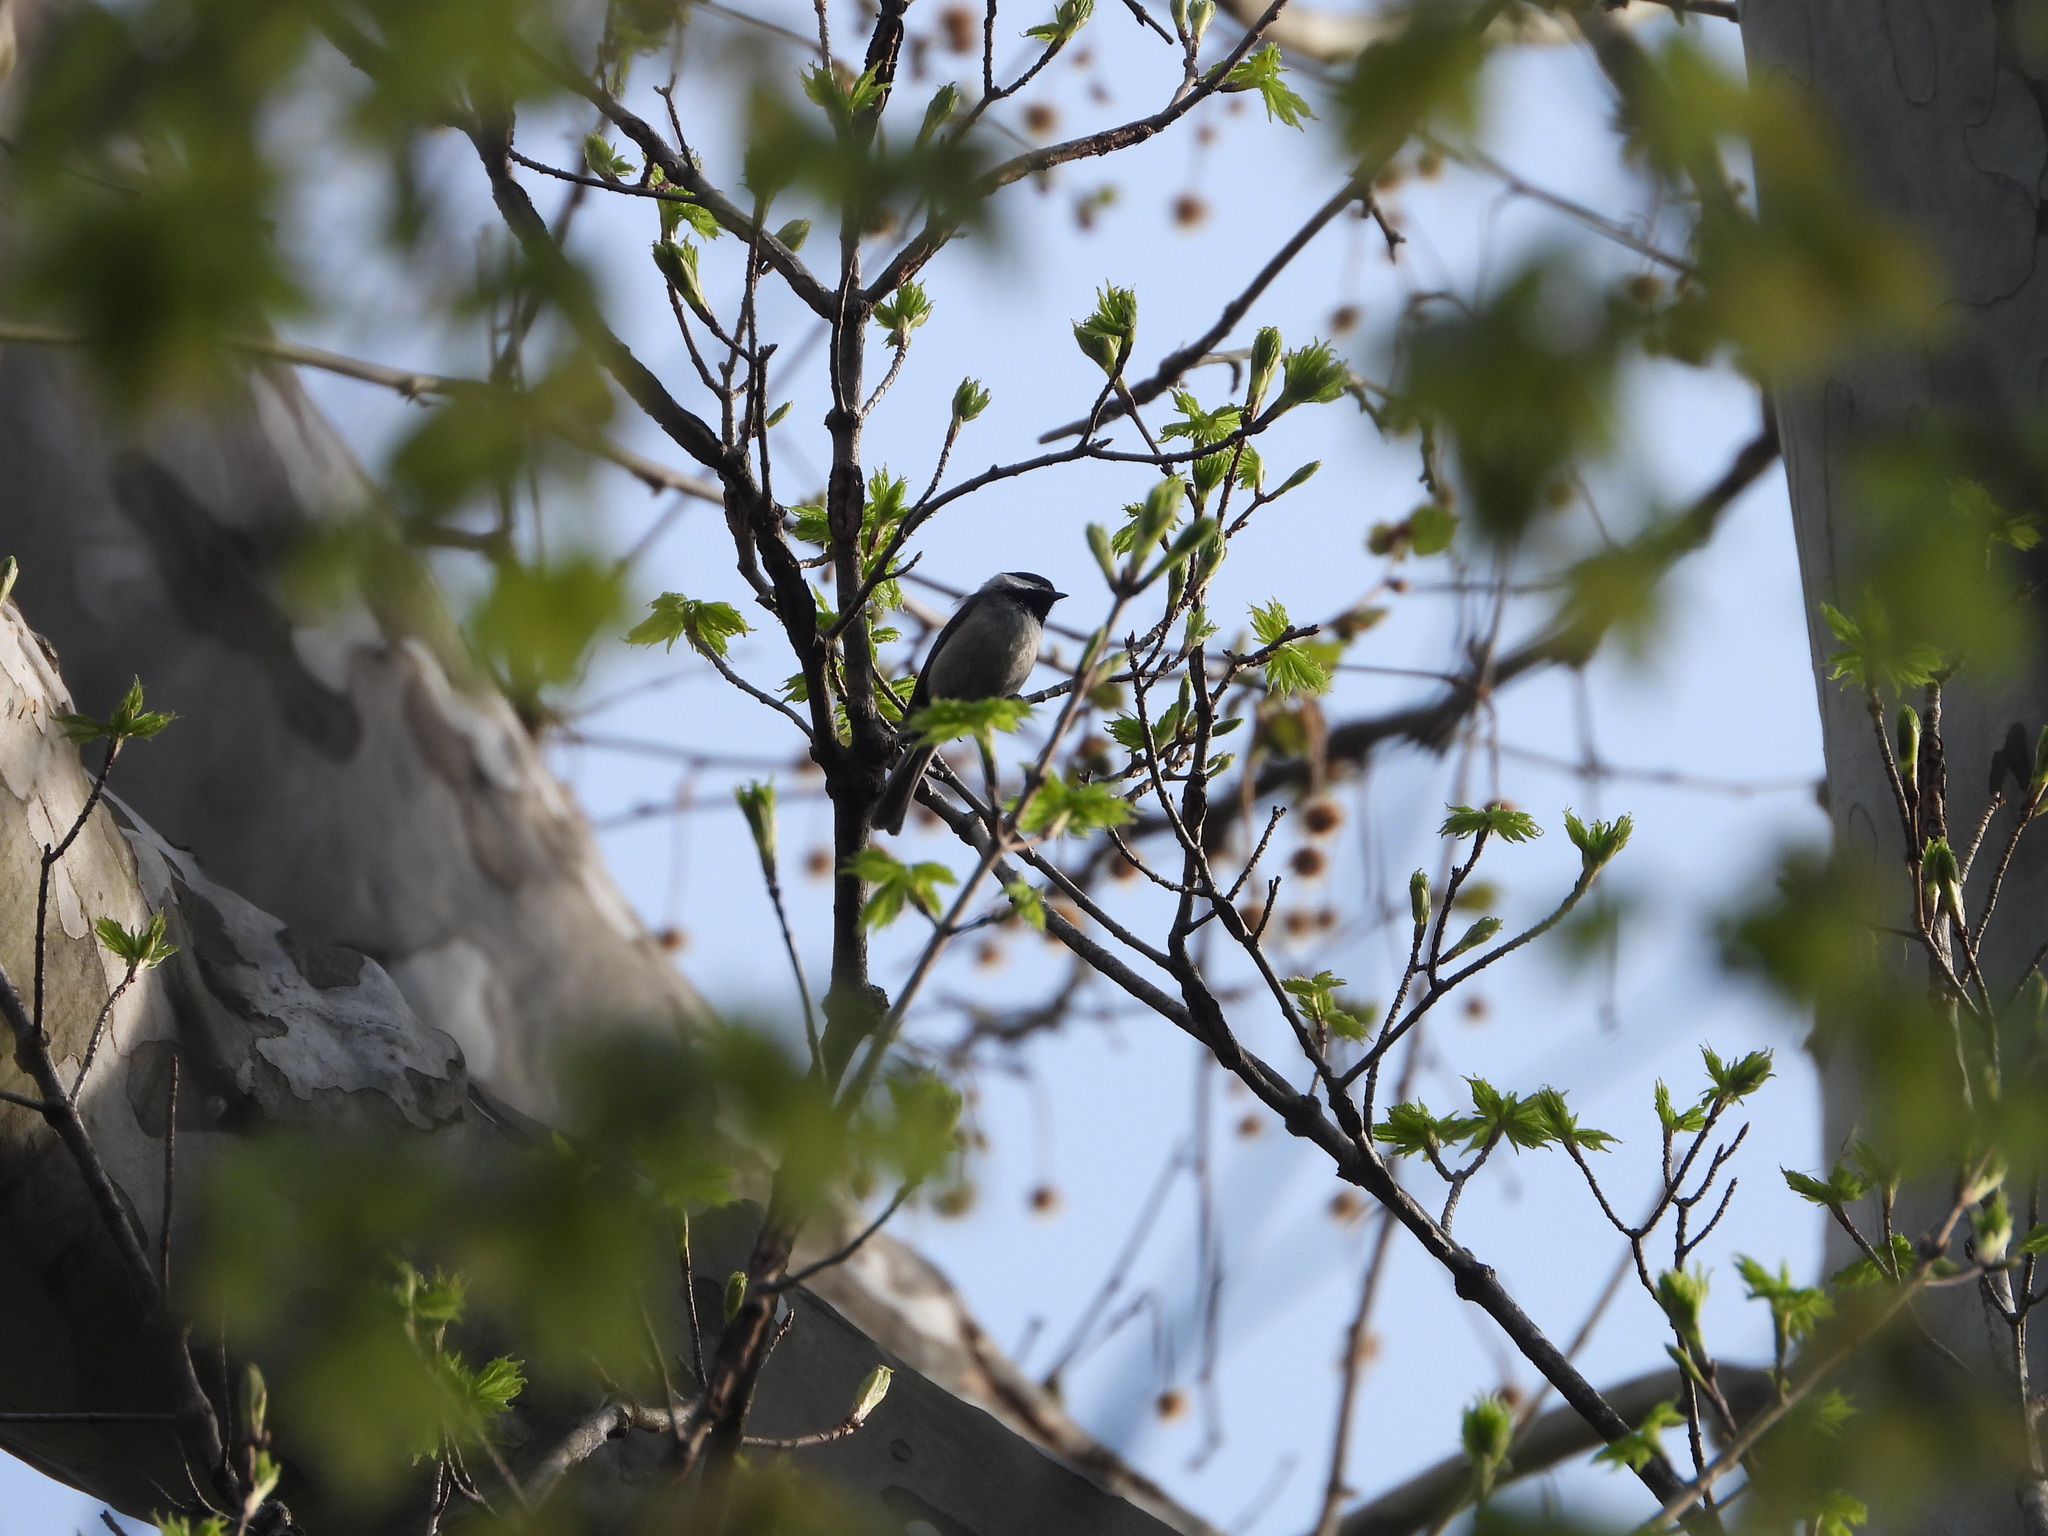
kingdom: Animalia
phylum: Chordata
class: Aves
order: Passeriformes
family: Paridae
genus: Poecile
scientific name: Poecile carolinensis
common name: Carolina chickadee
